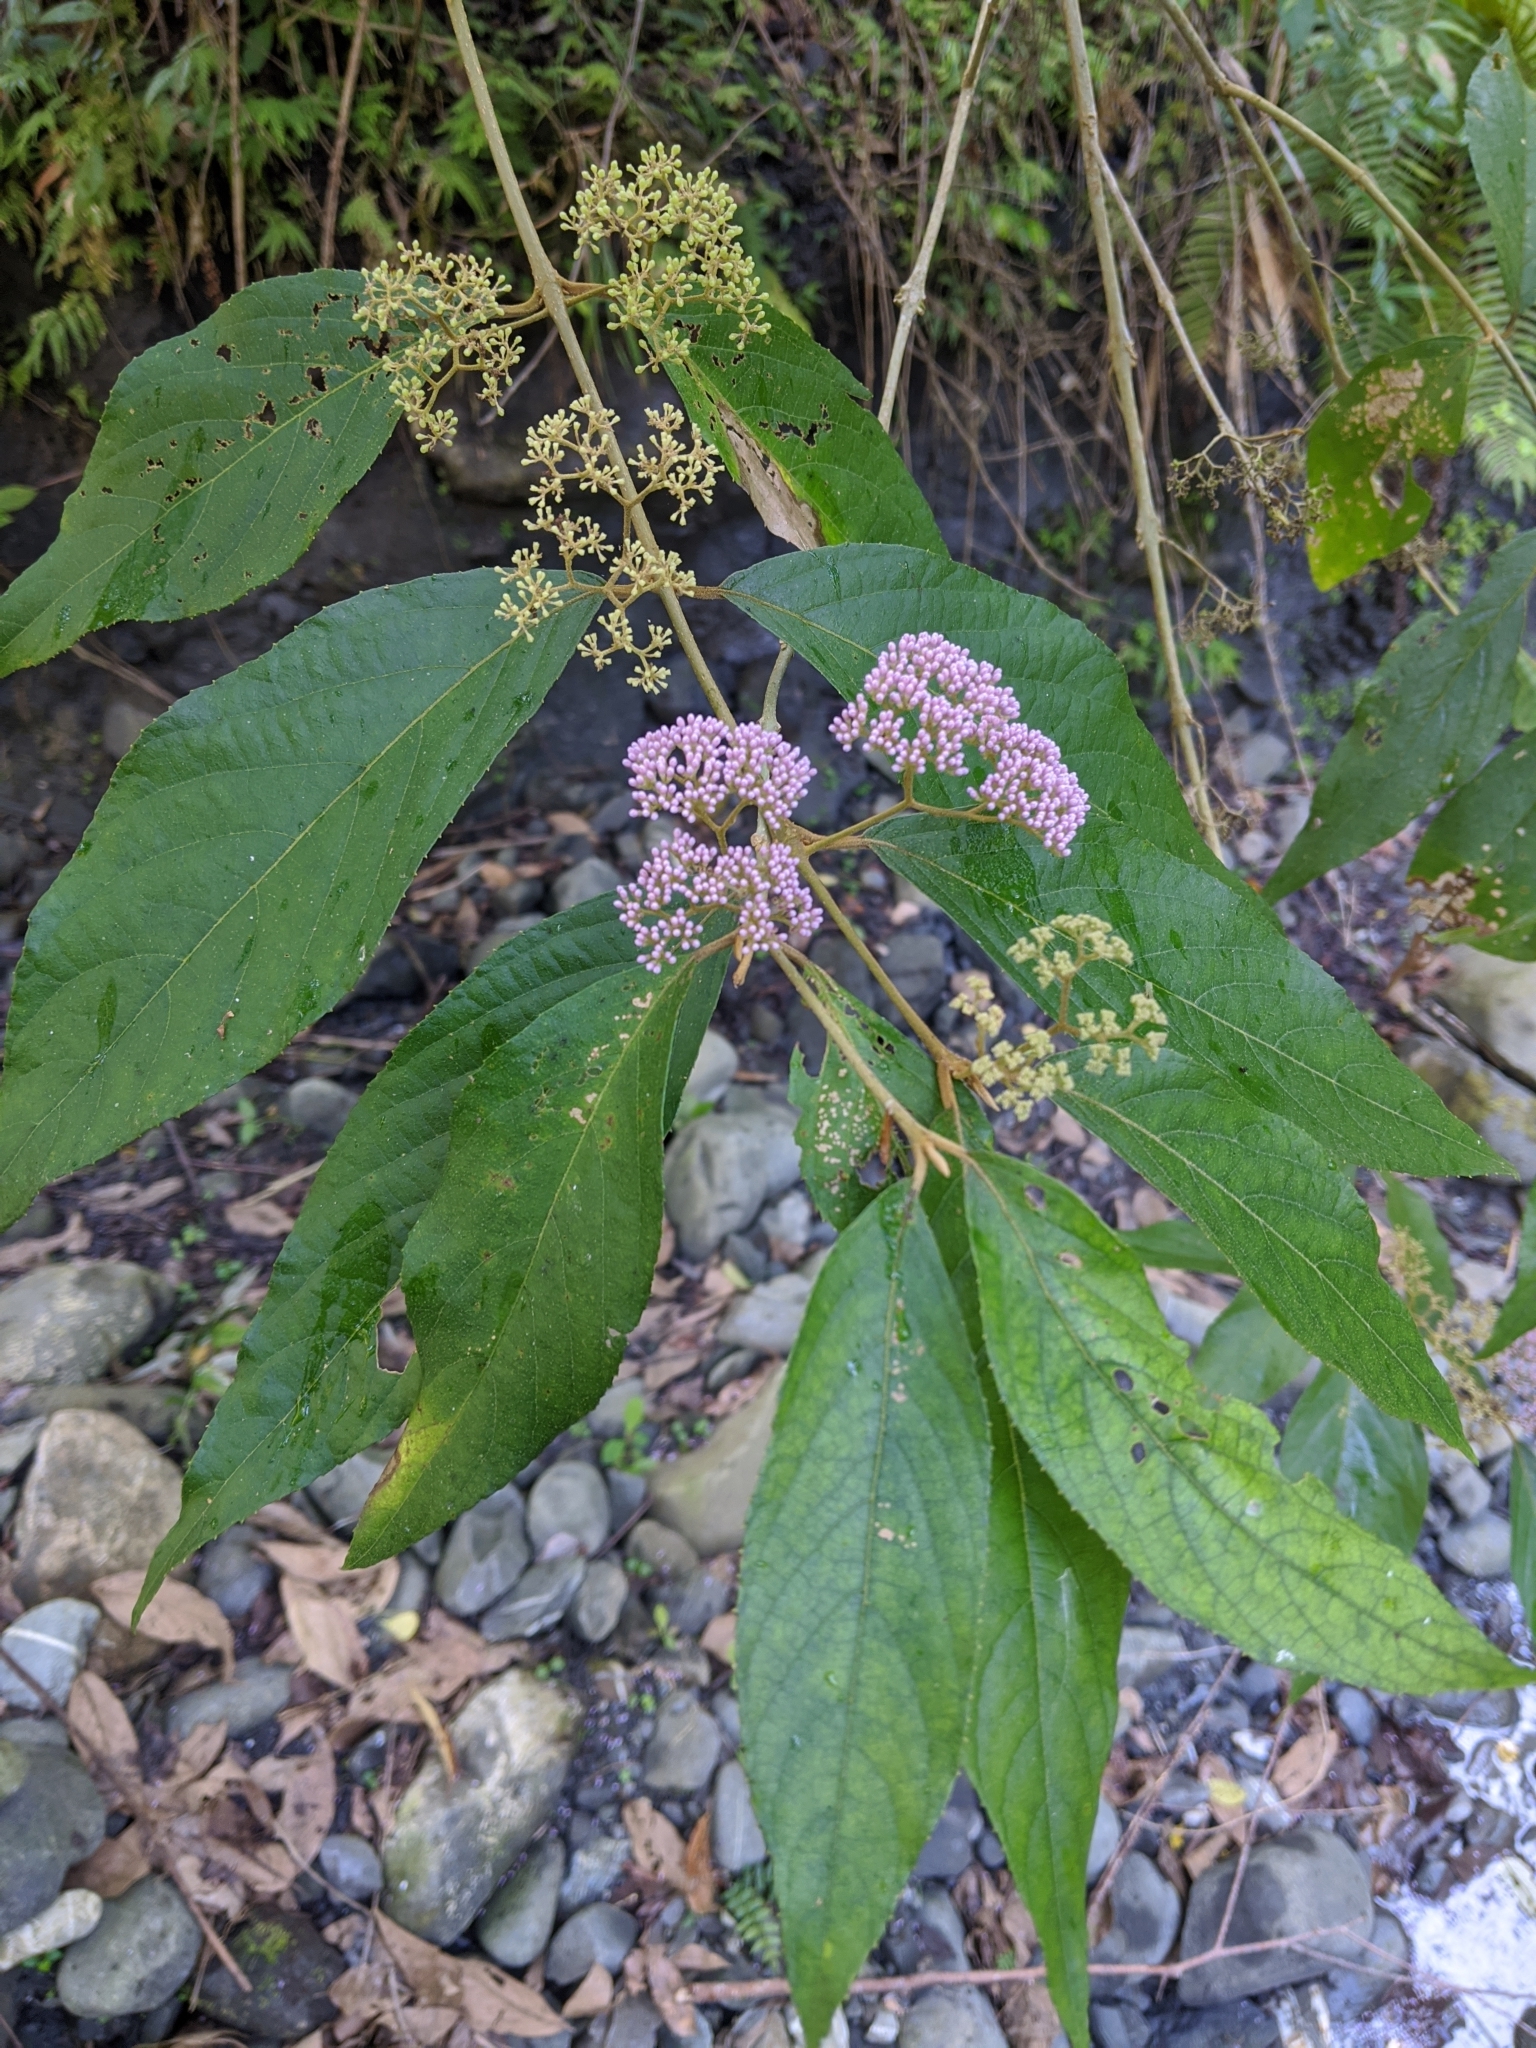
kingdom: Plantae
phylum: Tracheophyta
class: Magnoliopsida
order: Lamiales
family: Lamiaceae
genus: Callicarpa
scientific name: Callicarpa pedunculata
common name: Velvetleaf
